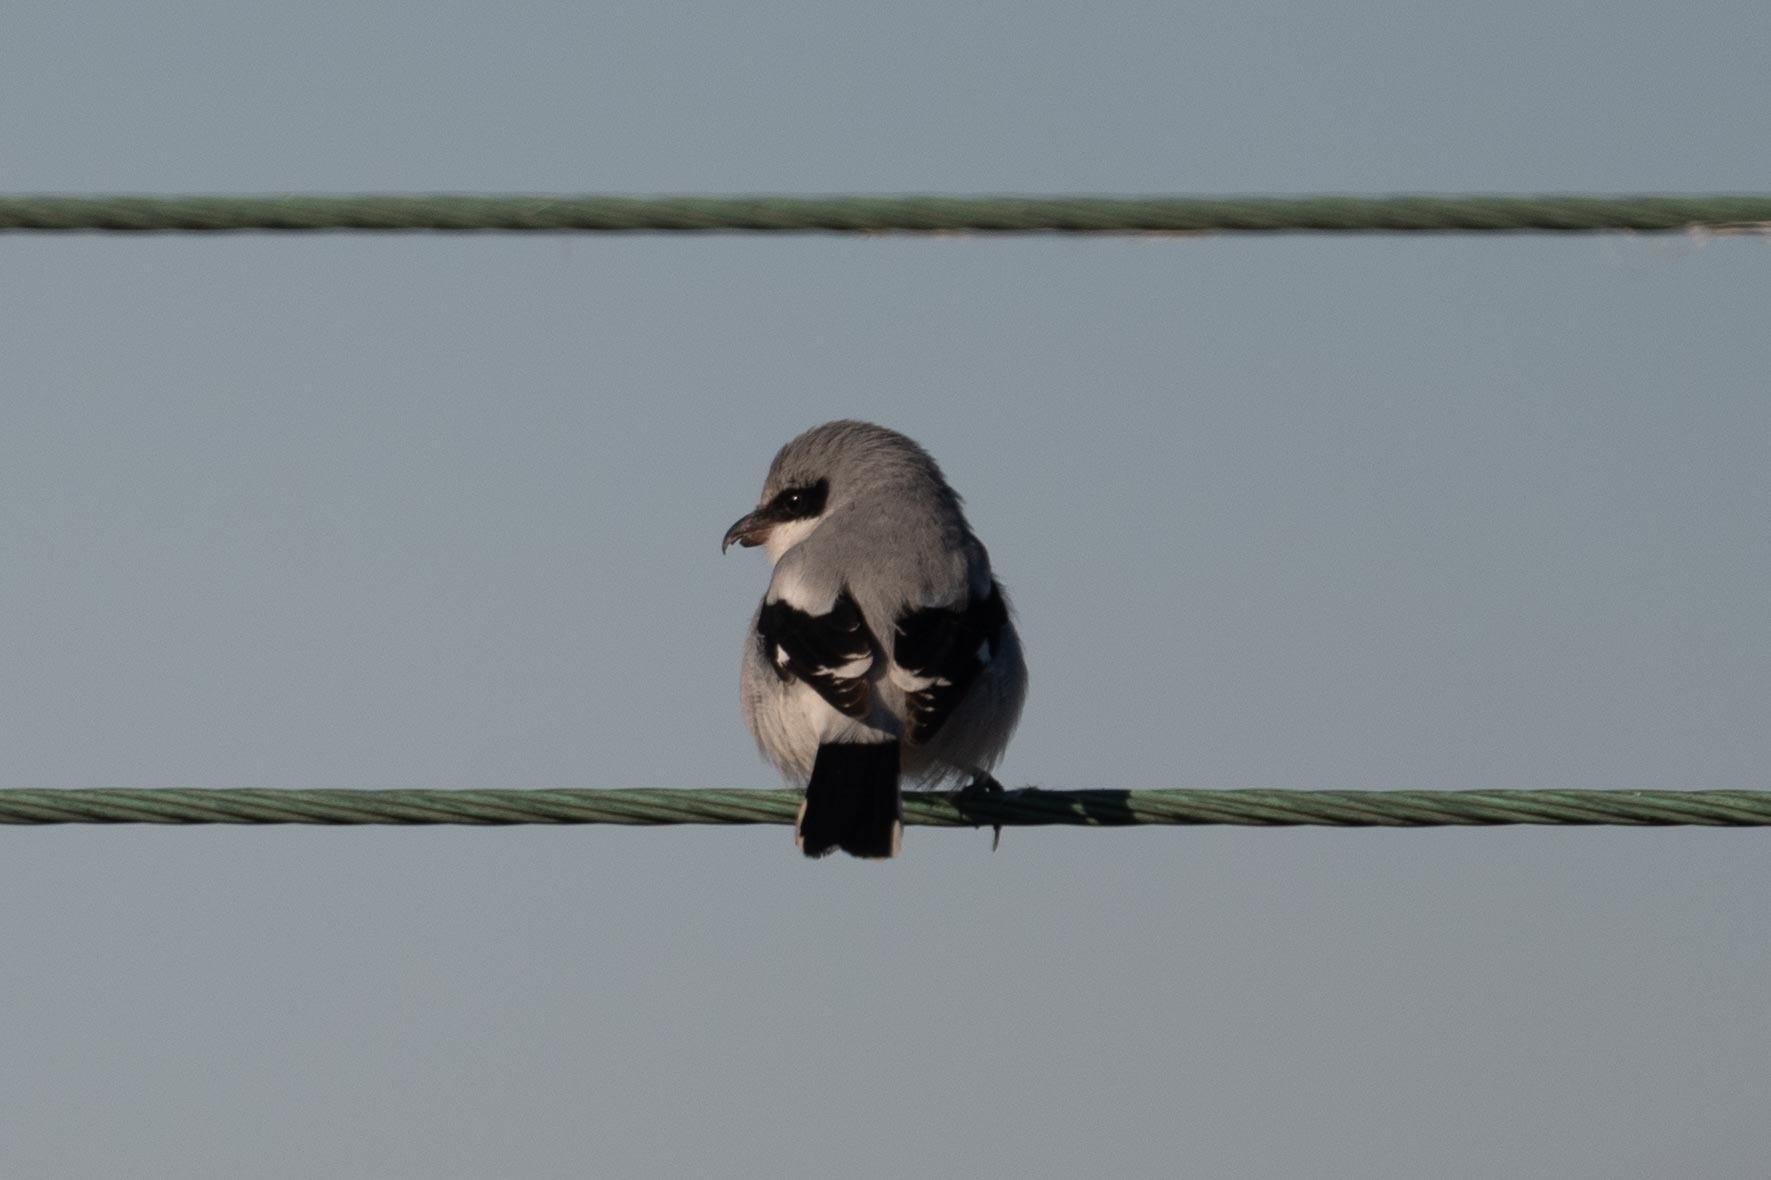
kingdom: Animalia
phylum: Chordata
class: Aves
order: Passeriformes
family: Laniidae
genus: Lanius
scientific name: Lanius ludovicianus
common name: Loggerhead shrike
